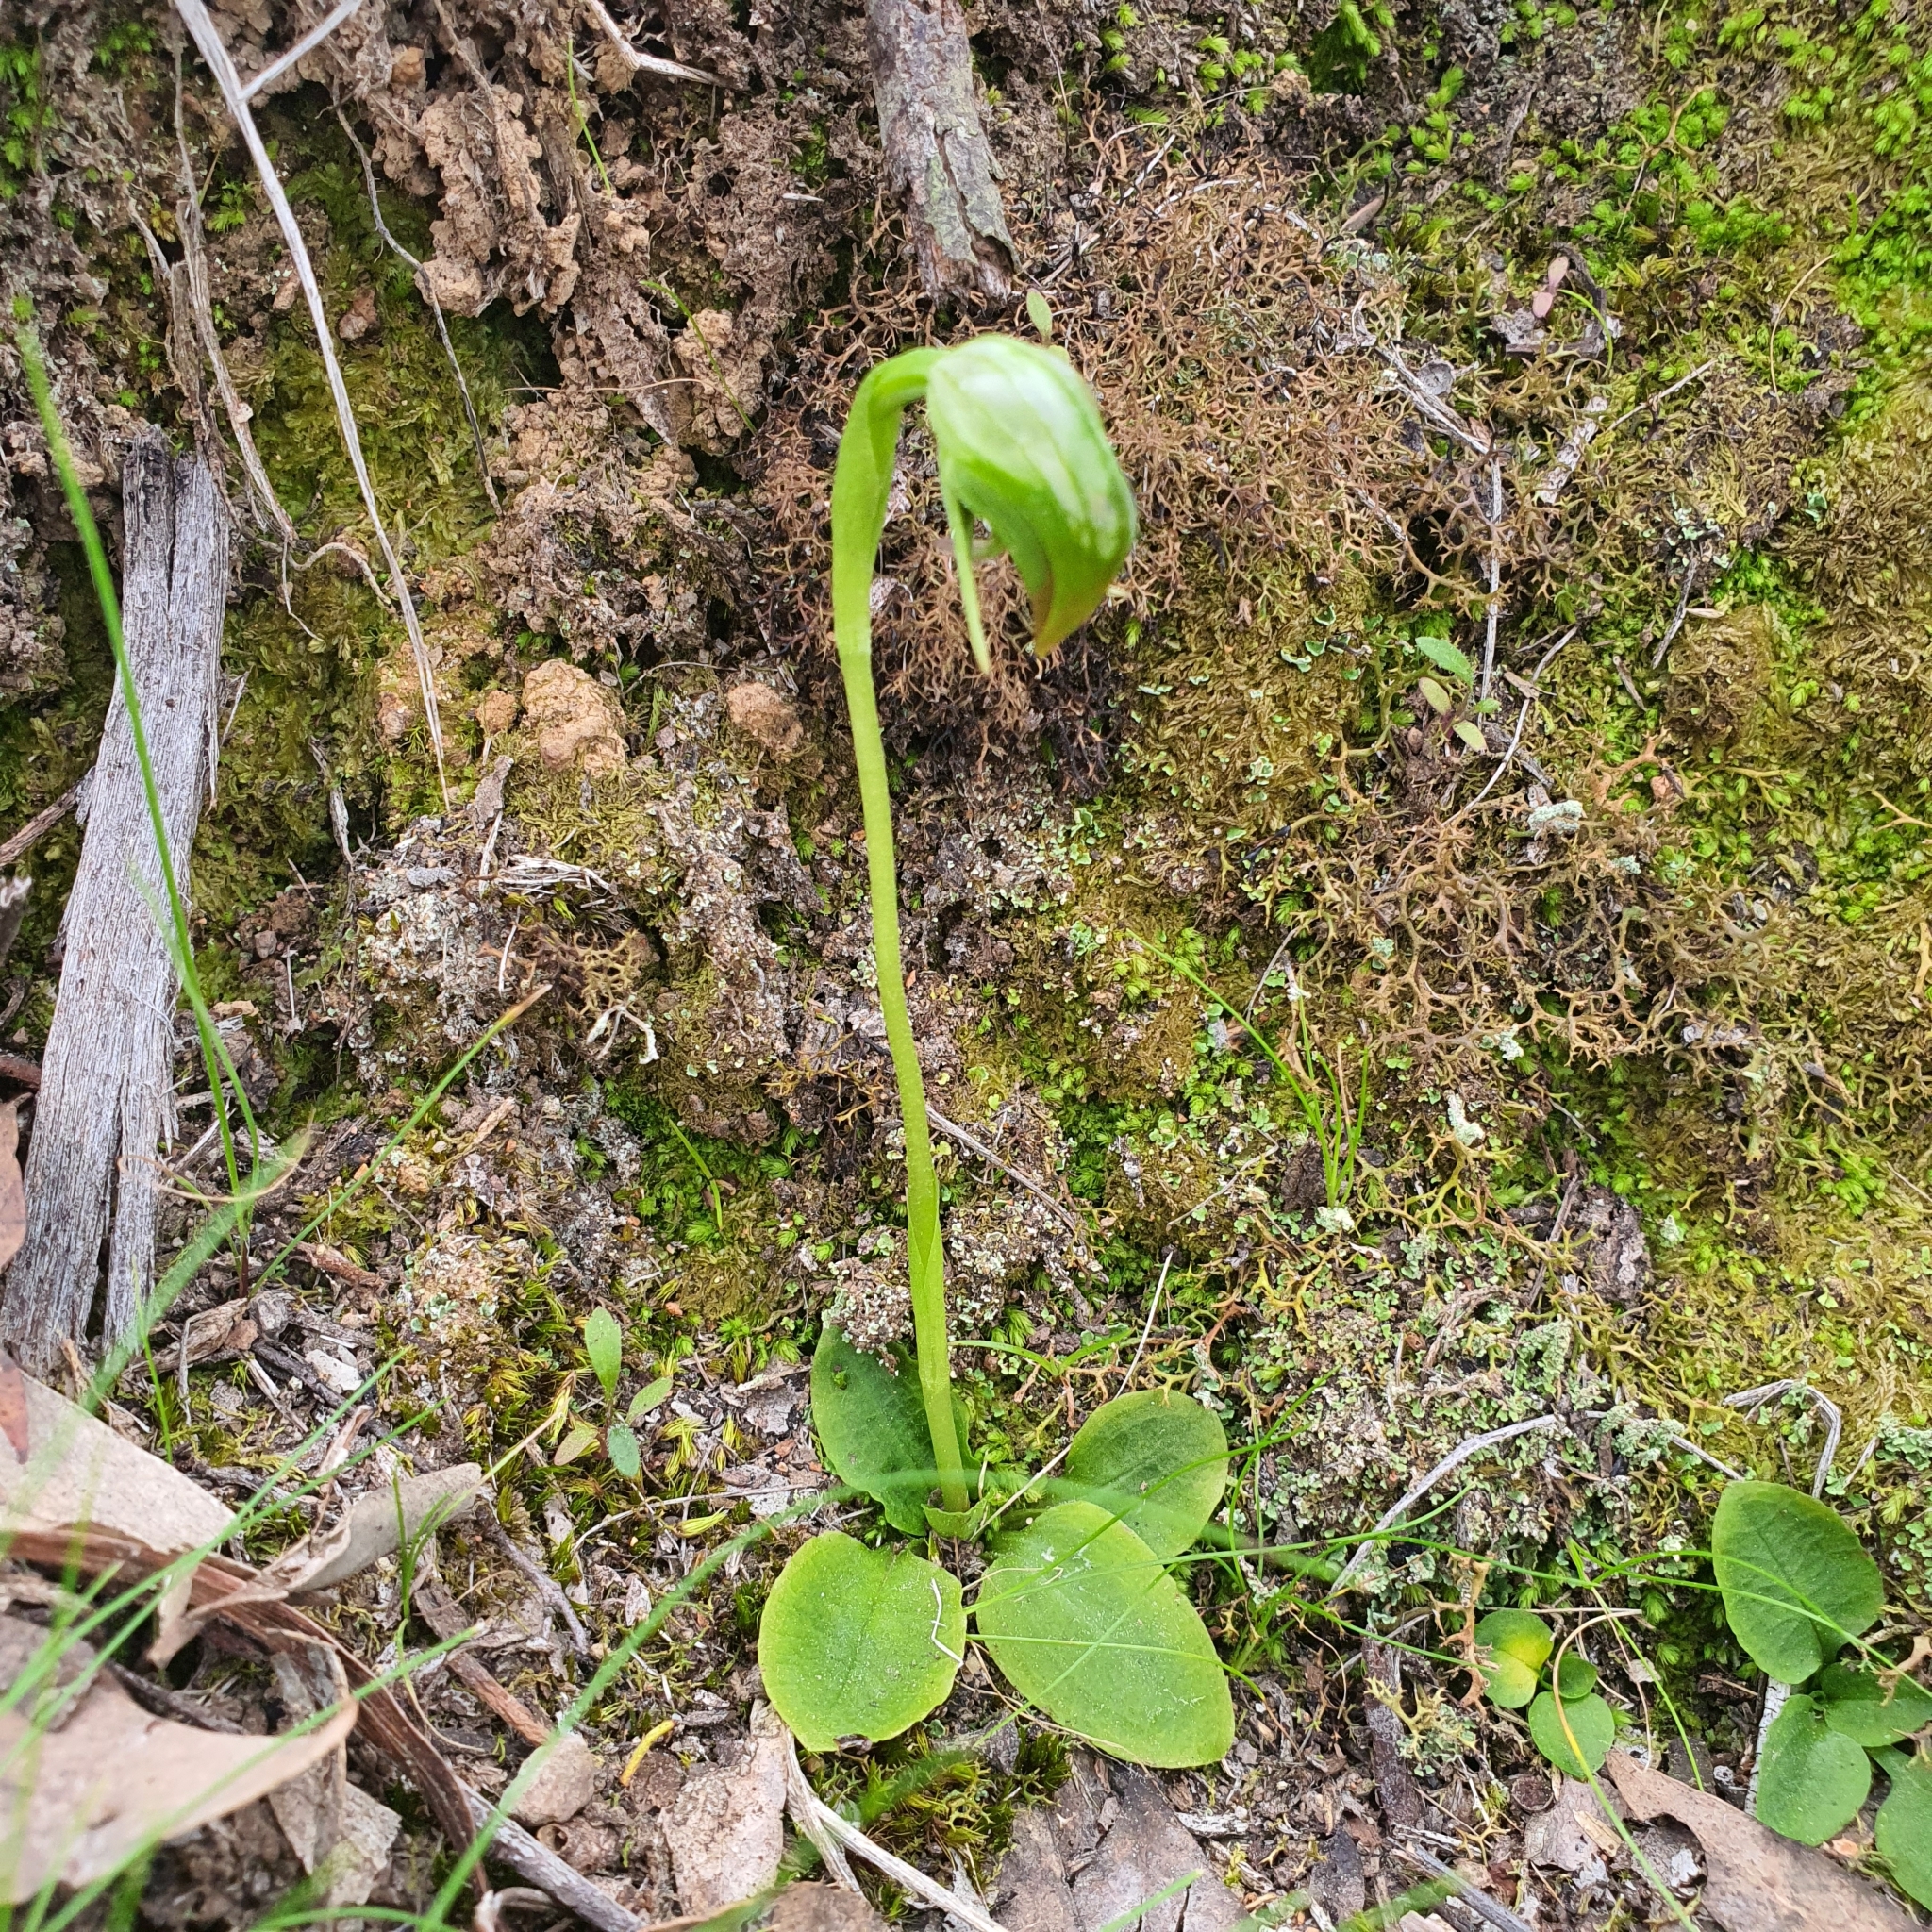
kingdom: Plantae
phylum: Tracheophyta
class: Liliopsida
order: Asparagales
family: Orchidaceae
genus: Pterostylis
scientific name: Pterostylis nutans
